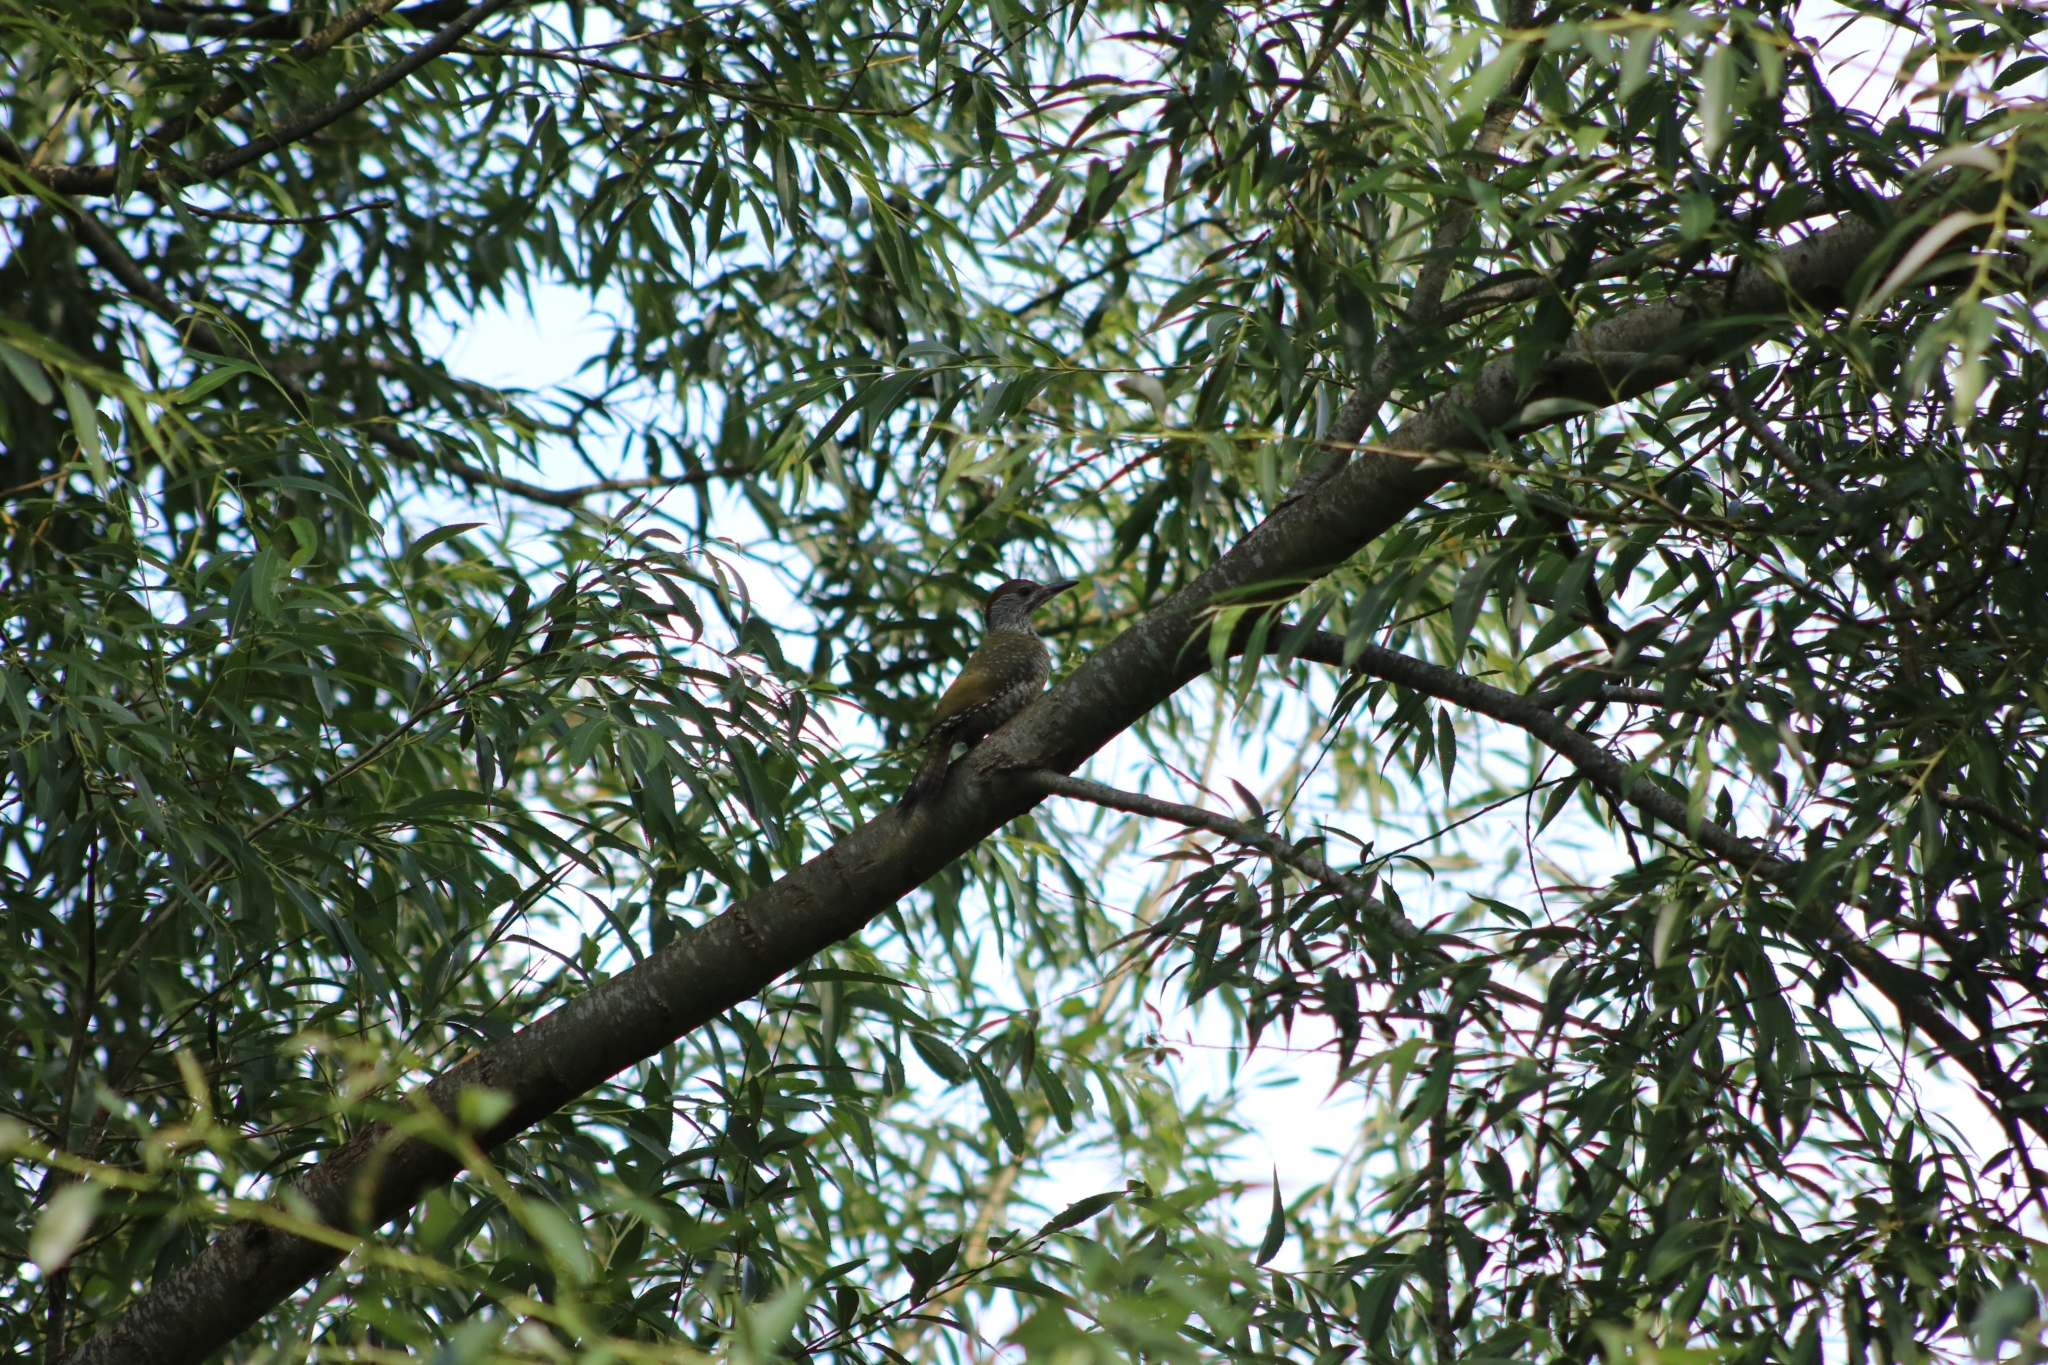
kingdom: Animalia
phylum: Chordata
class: Aves
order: Piciformes
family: Picidae
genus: Picus
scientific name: Picus viridis
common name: European green woodpecker
